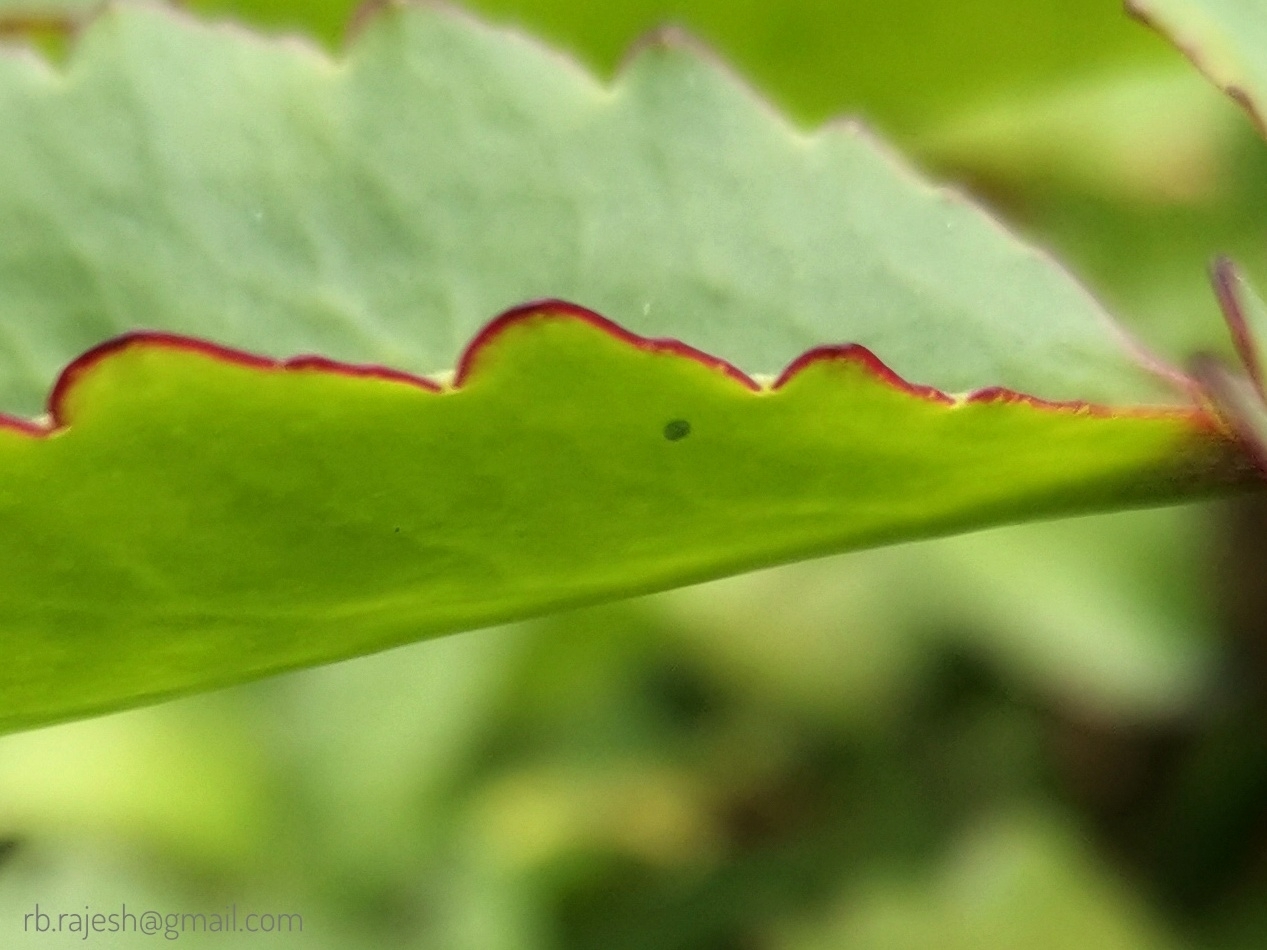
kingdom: Animalia
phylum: Arthropoda
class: Insecta
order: Lepidoptera
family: Lycaenidae
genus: Talicada
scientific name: Talicada nyseus
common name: Red pierrot
